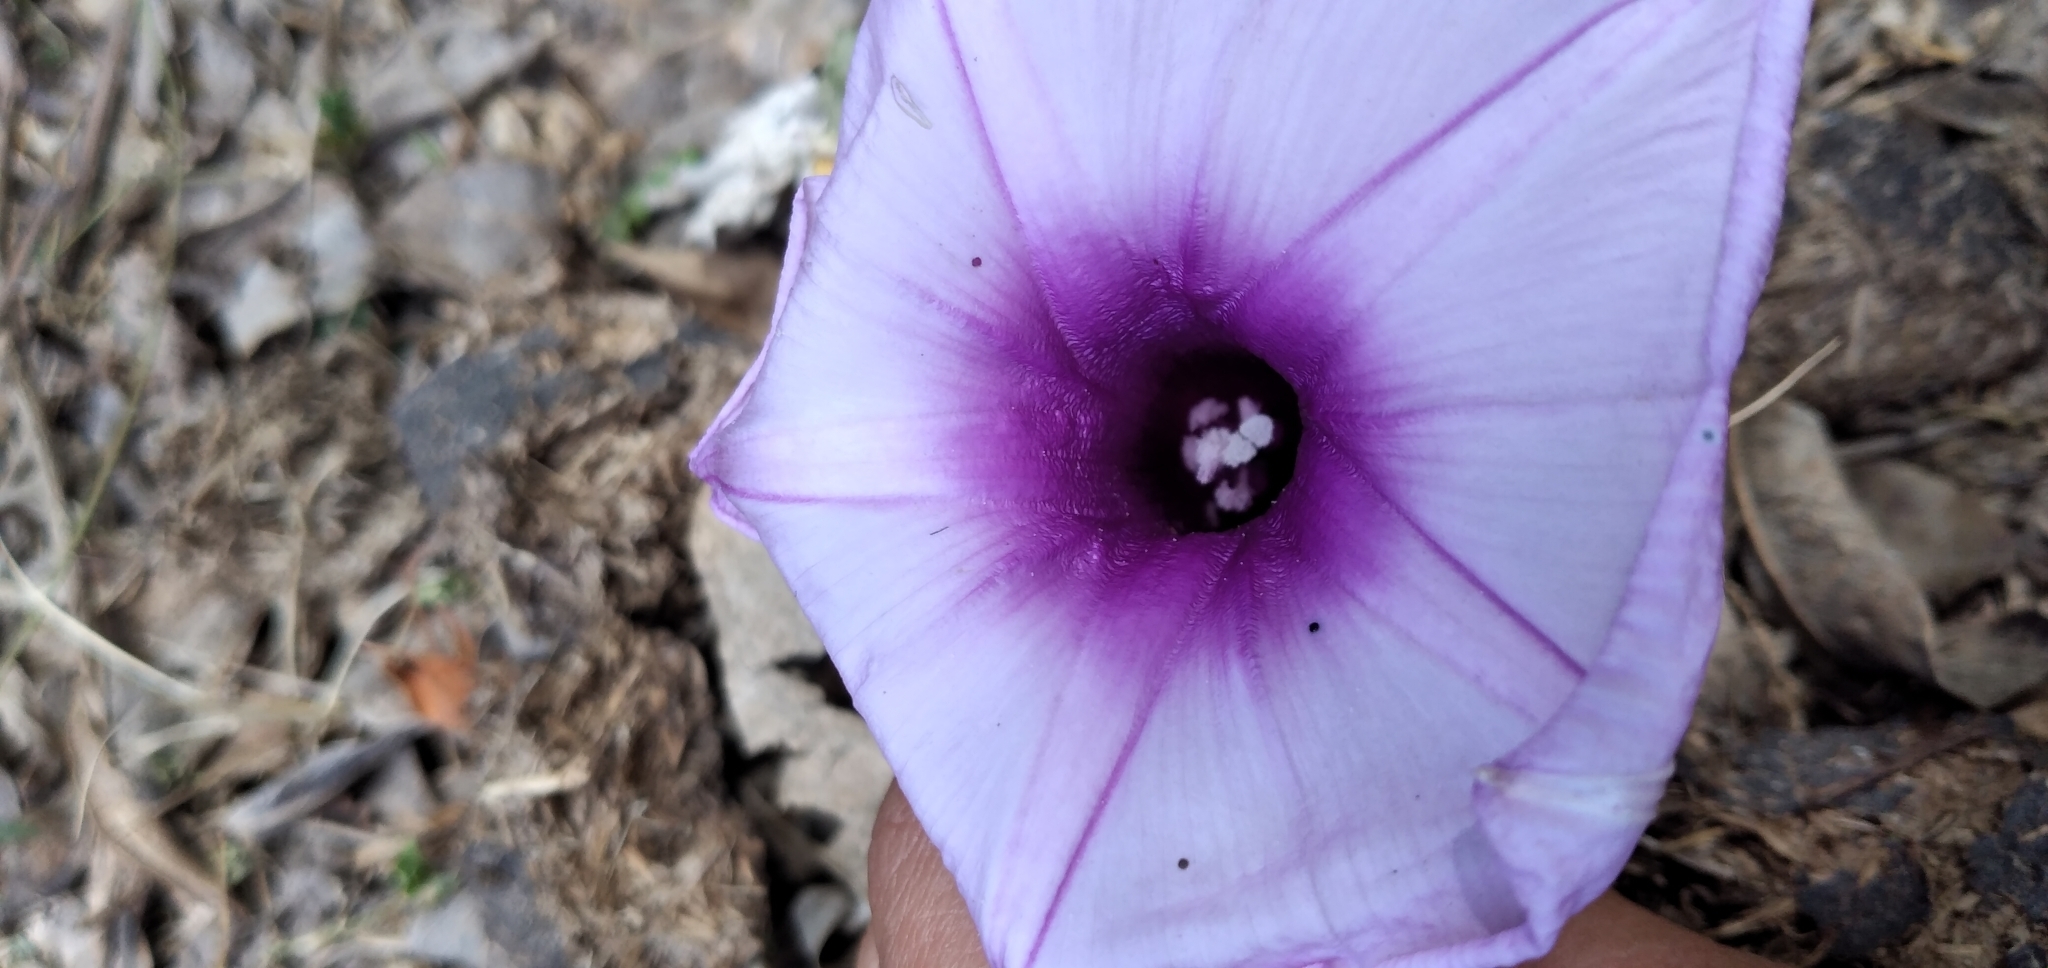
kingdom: Plantae
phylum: Tracheophyta
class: Magnoliopsida
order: Solanales
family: Convolvulaceae
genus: Ipomoea
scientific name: Ipomoea cairica
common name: Mile a minute vine
